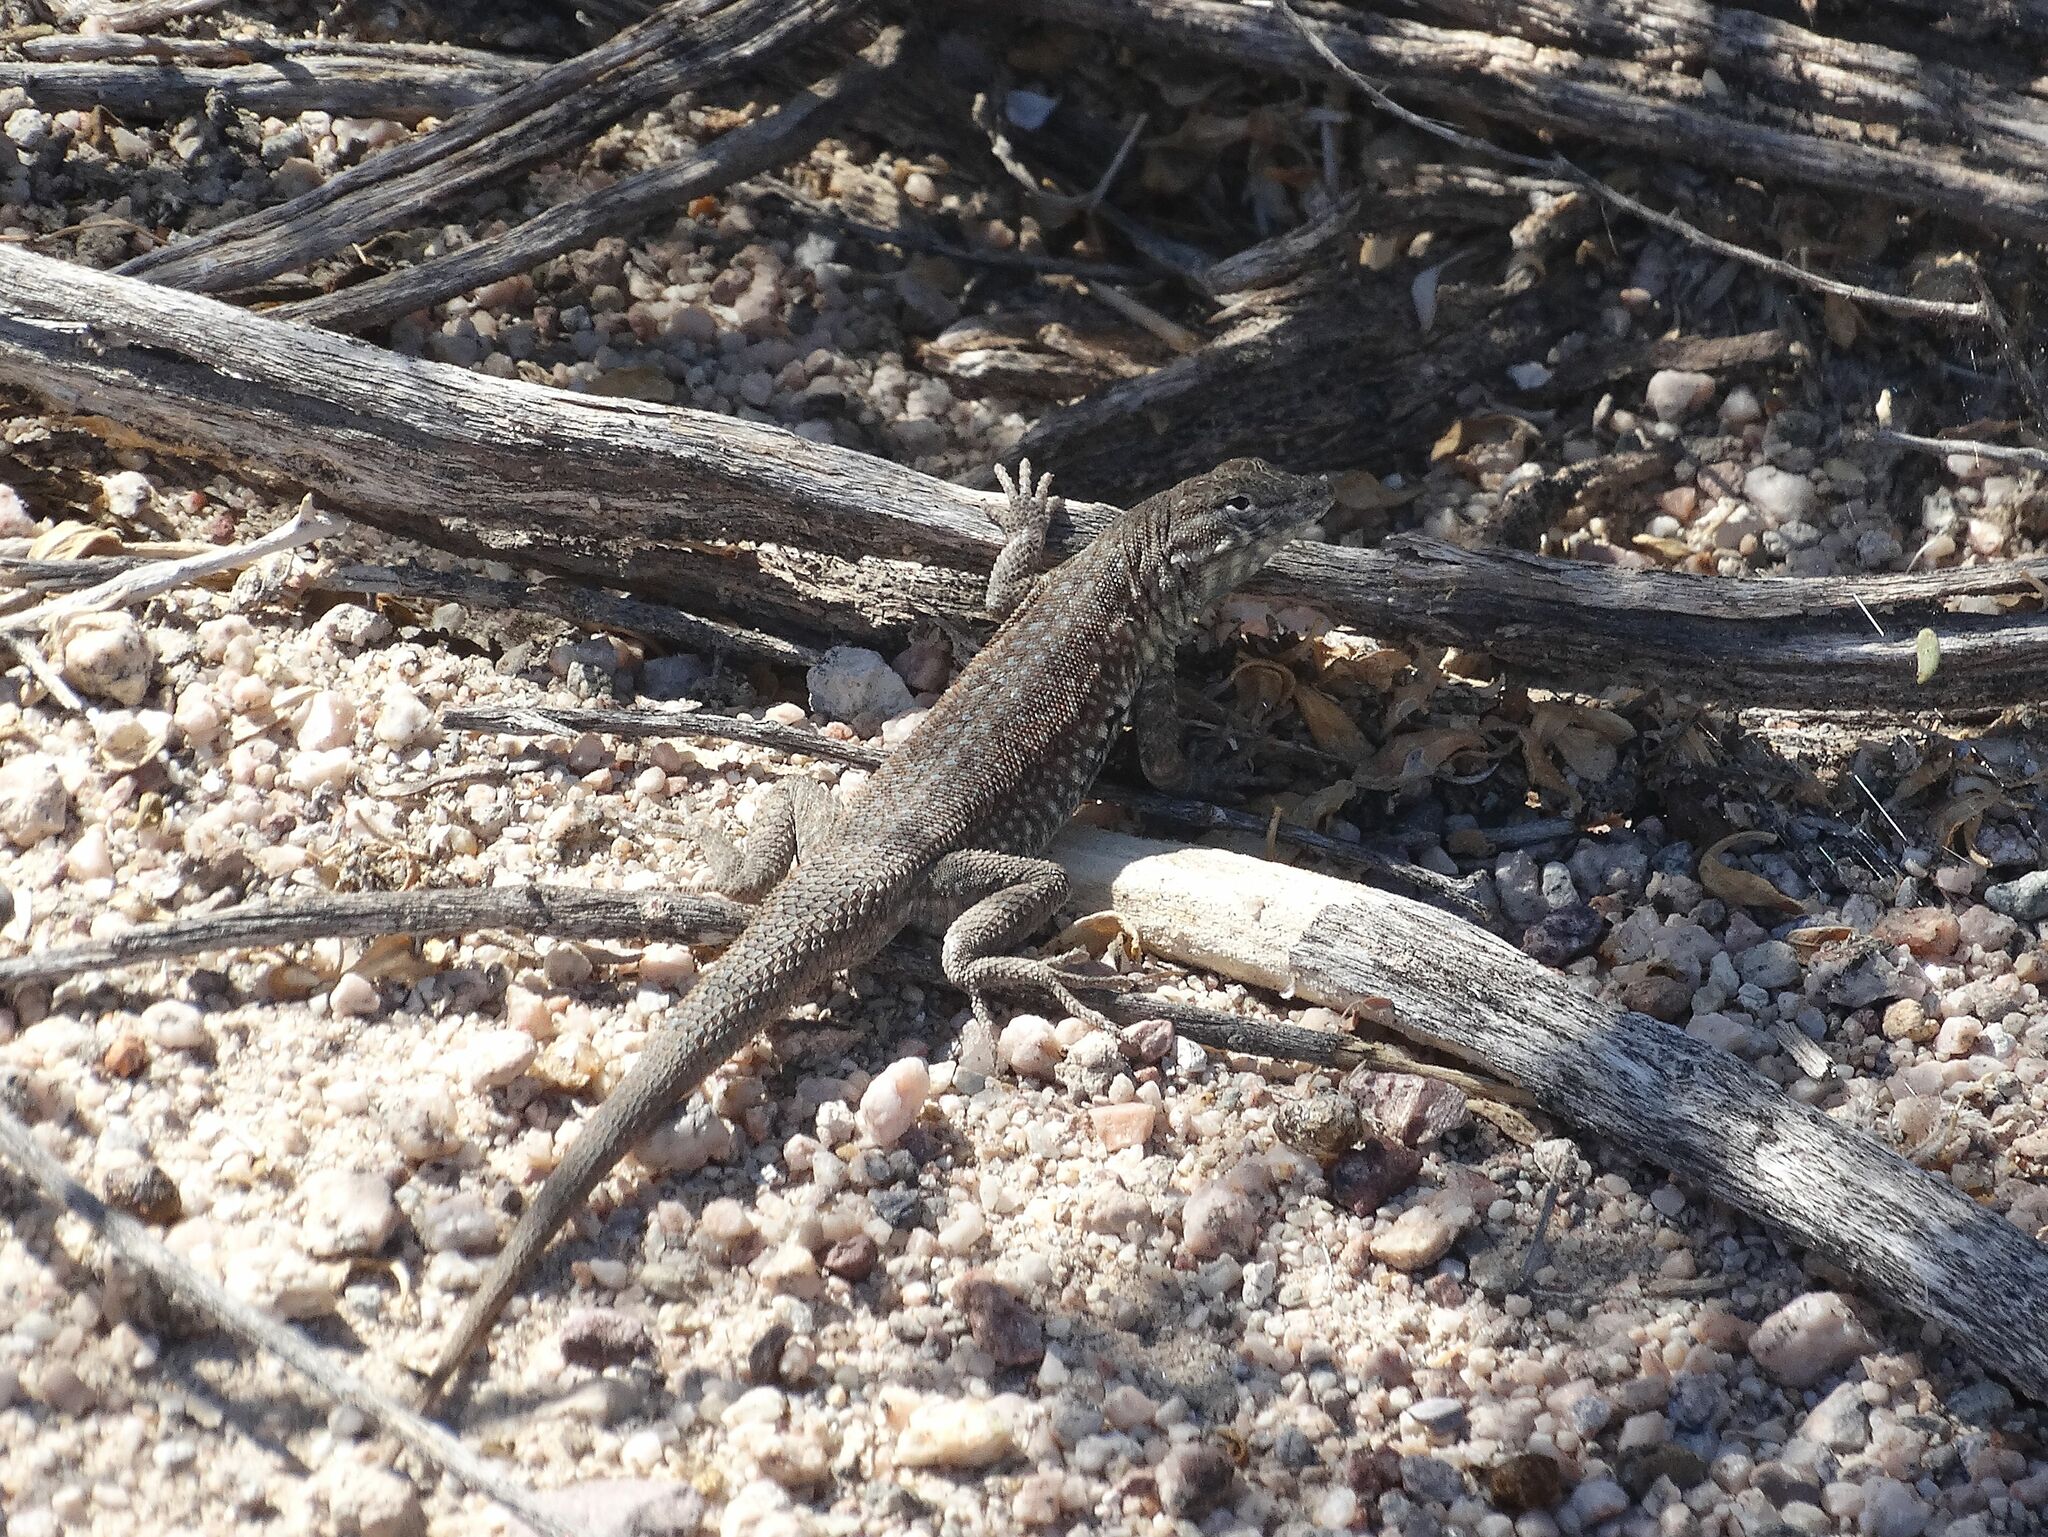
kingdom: Animalia
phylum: Chordata
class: Squamata
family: Phrynosomatidae
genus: Uta
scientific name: Uta stansburiana
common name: Side-blotched lizard
